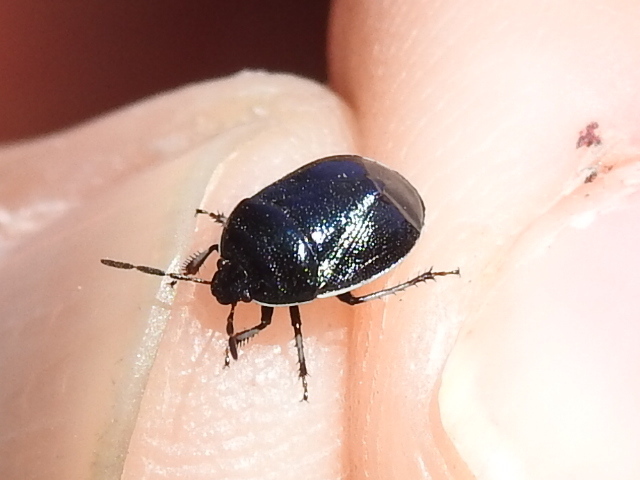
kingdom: Animalia
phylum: Arthropoda
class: Insecta
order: Hemiptera
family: Cydnidae
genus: Sehirus
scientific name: Sehirus cinctus
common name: White-margined burrower bug
